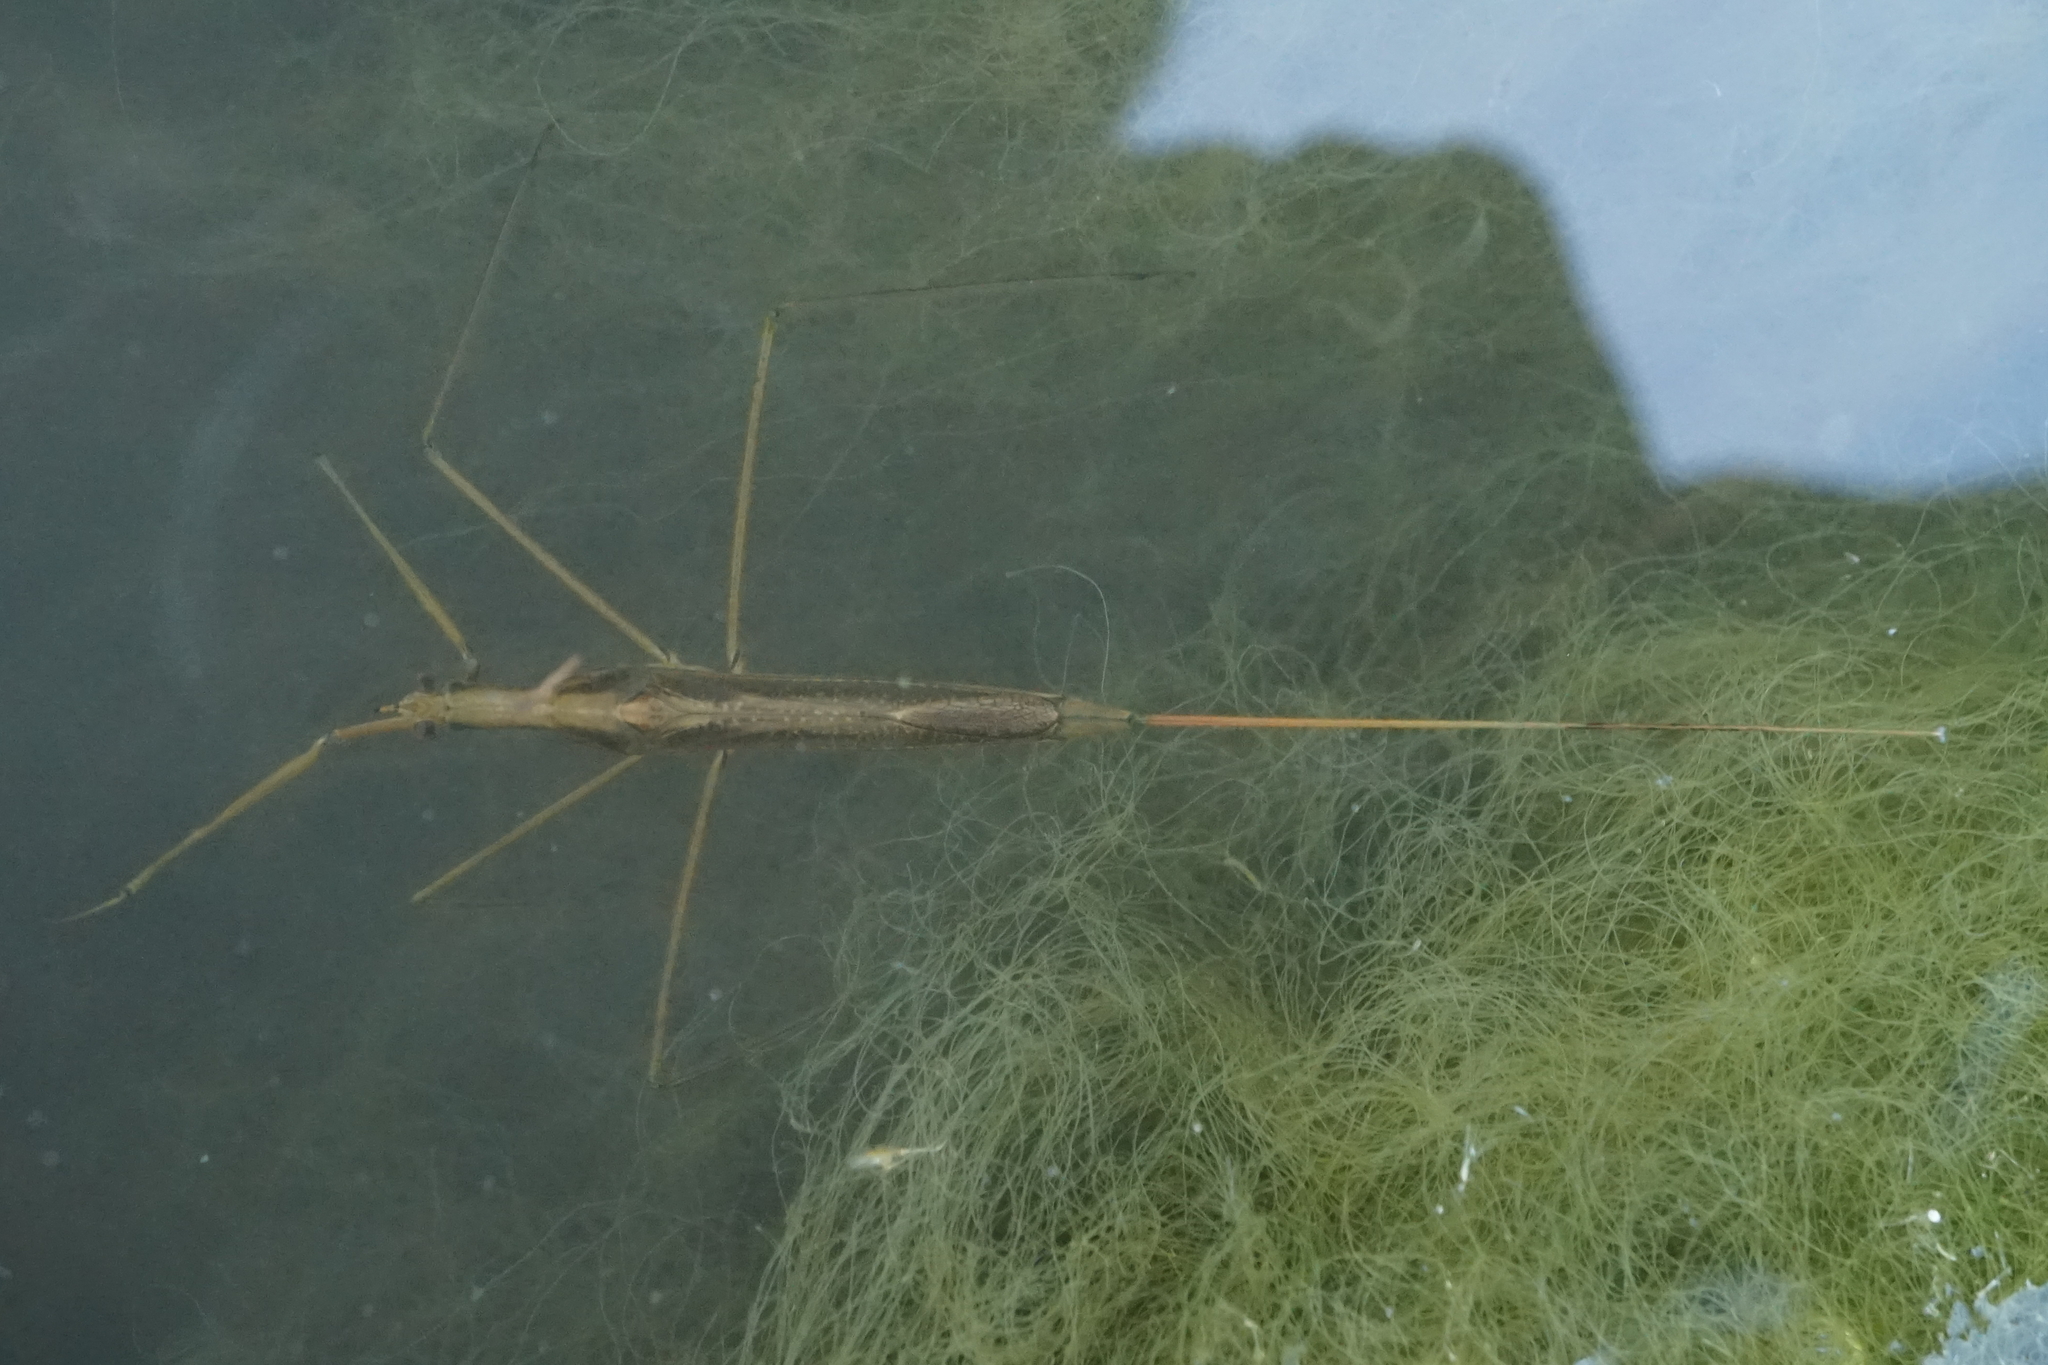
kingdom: Animalia
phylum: Arthropoda
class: Insecta
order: Hemiptera
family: Nepidae
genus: Ranatra
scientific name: Ranatra chinensis
